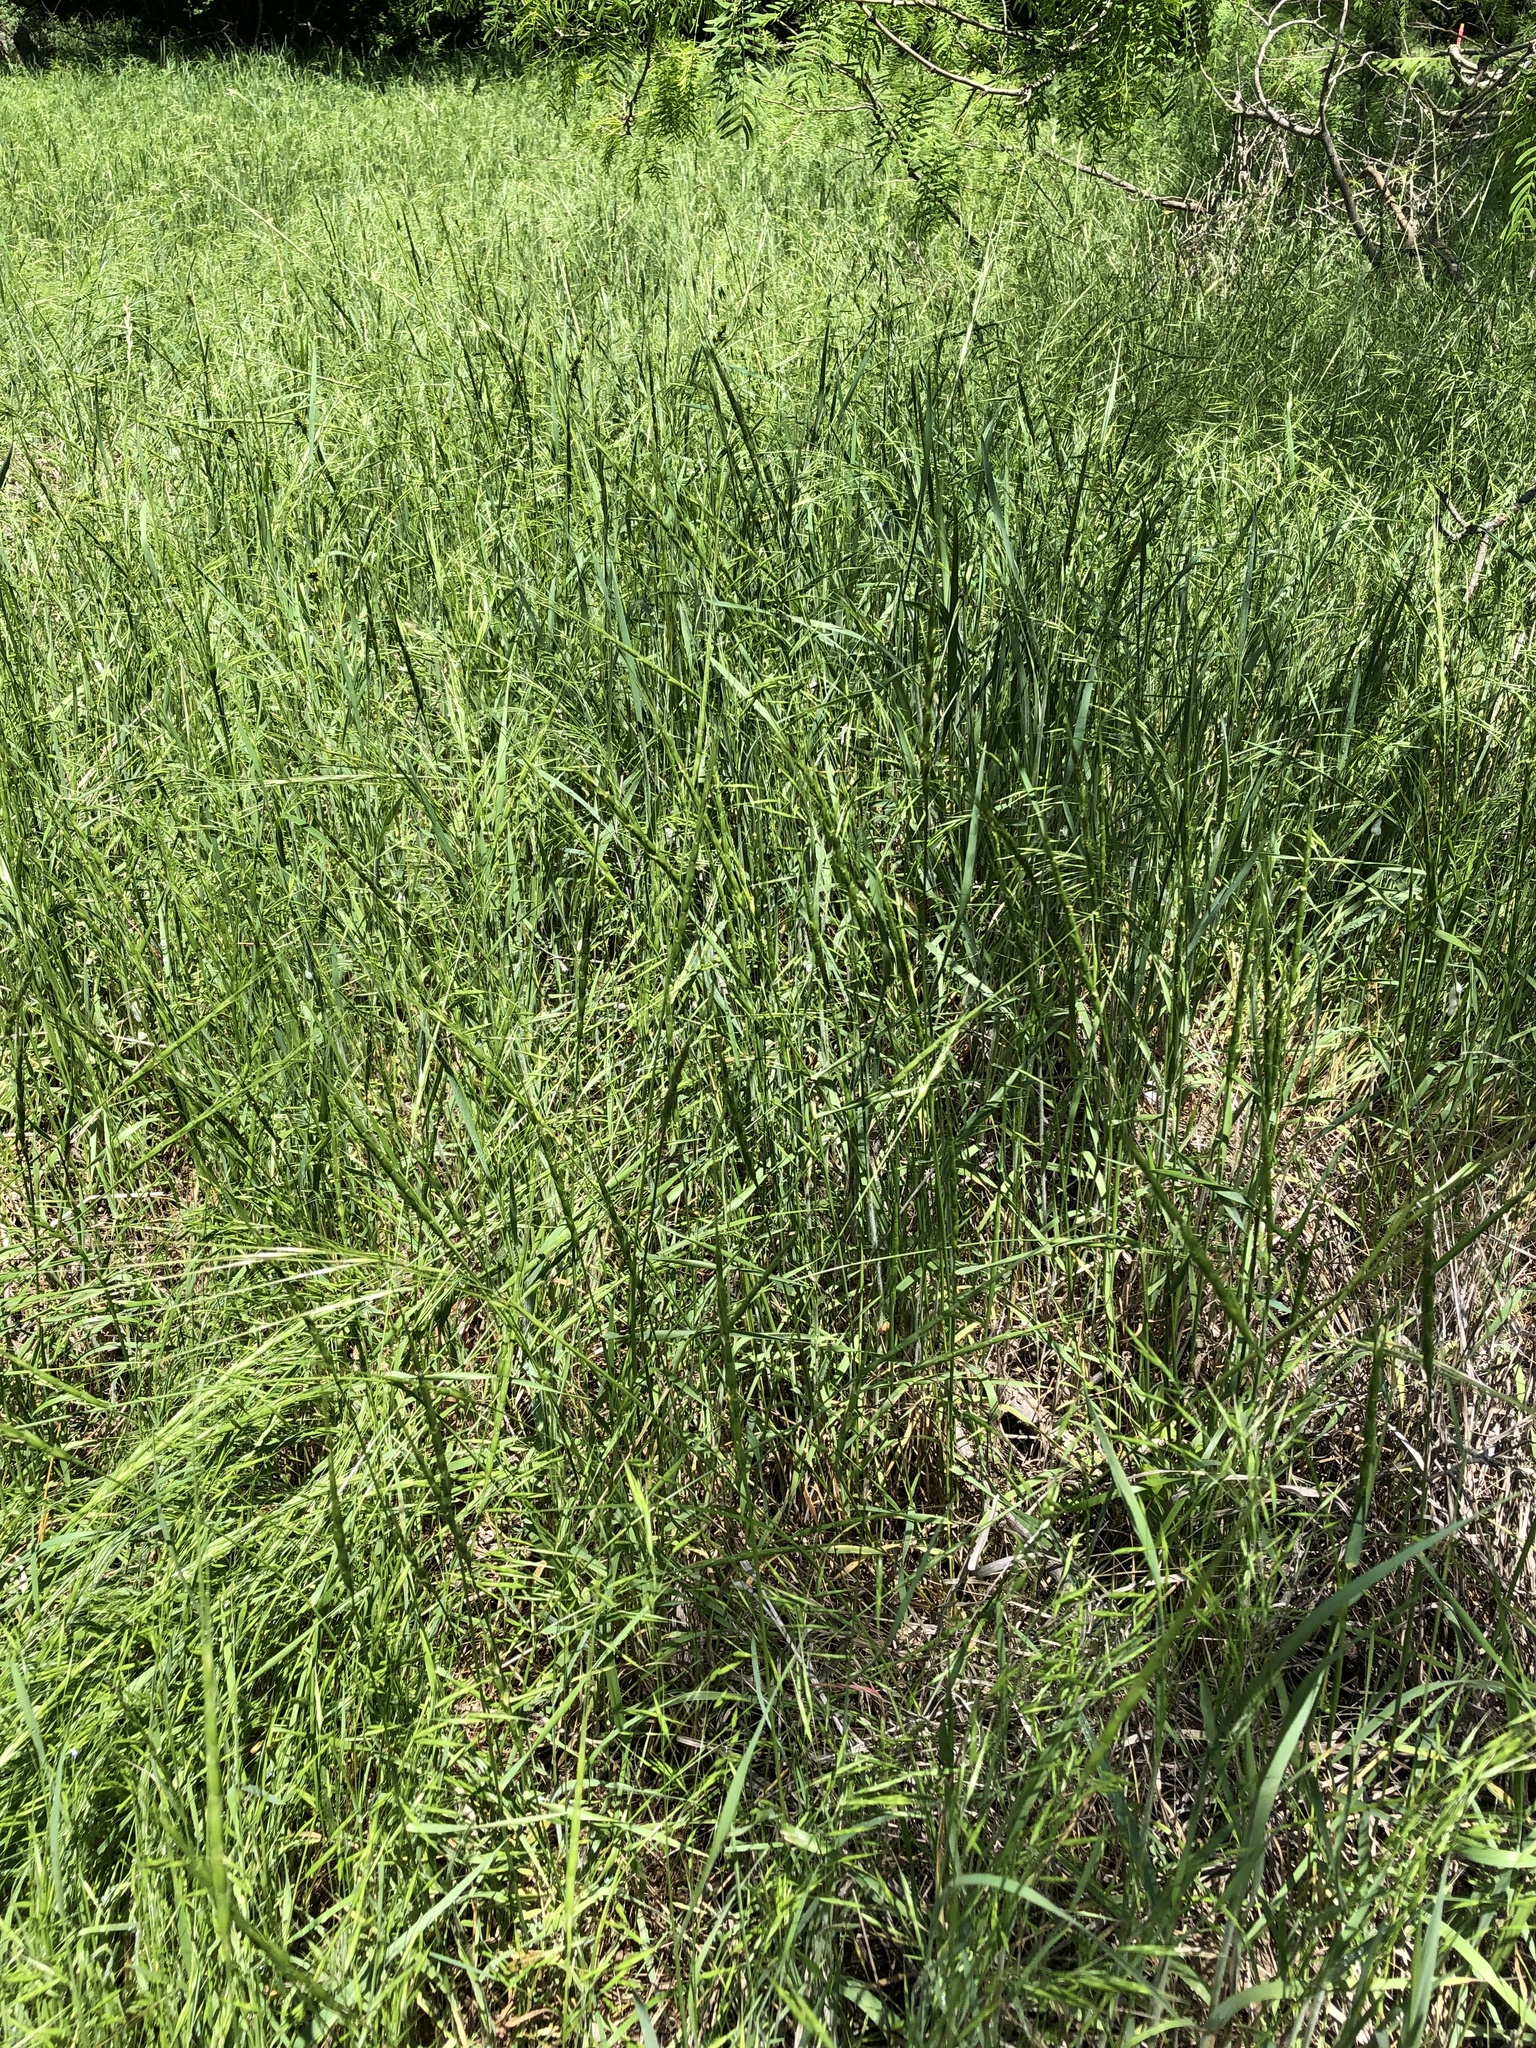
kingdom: Plantae
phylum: Tracheophyta
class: Liliopsida
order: Poales
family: Poaceae
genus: Aegilops
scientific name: Aegilops cylindrica
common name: Jointed goatgrass
